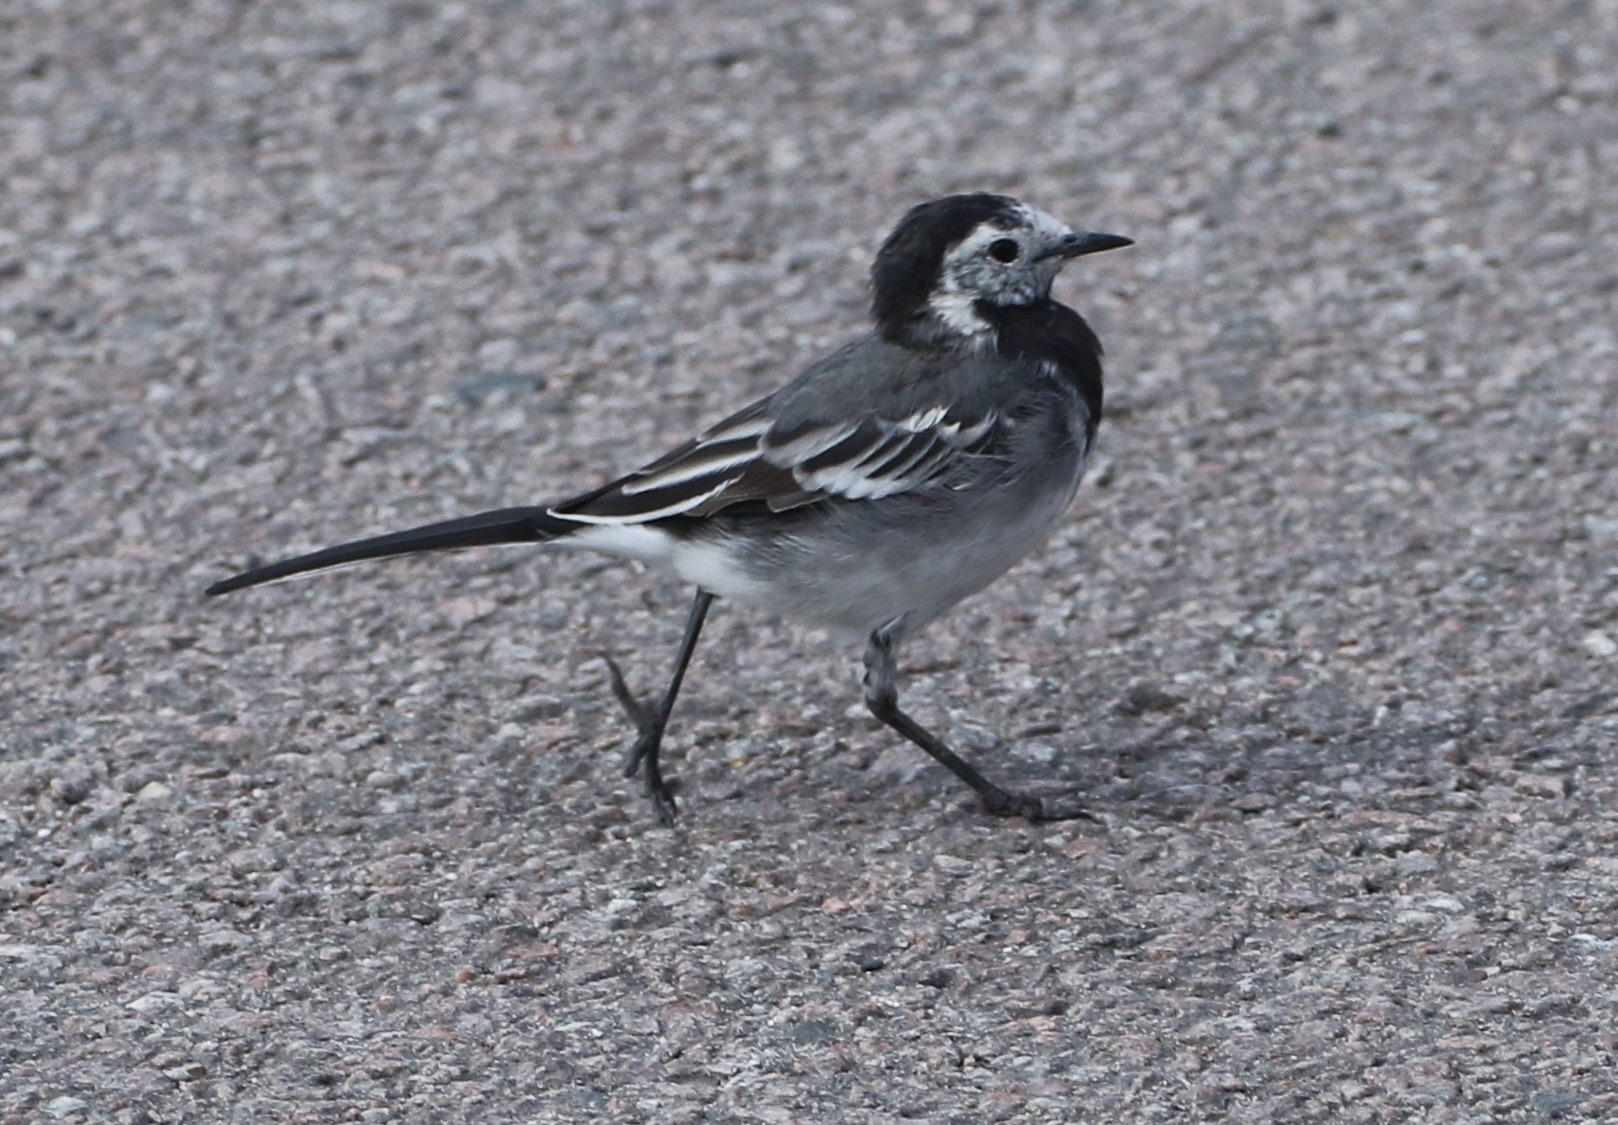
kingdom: Animalia
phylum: Chordata
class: Aves
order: Passeriformes
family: Motacillidae
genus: Motacilla
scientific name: Motacilla alba
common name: White wagtail
